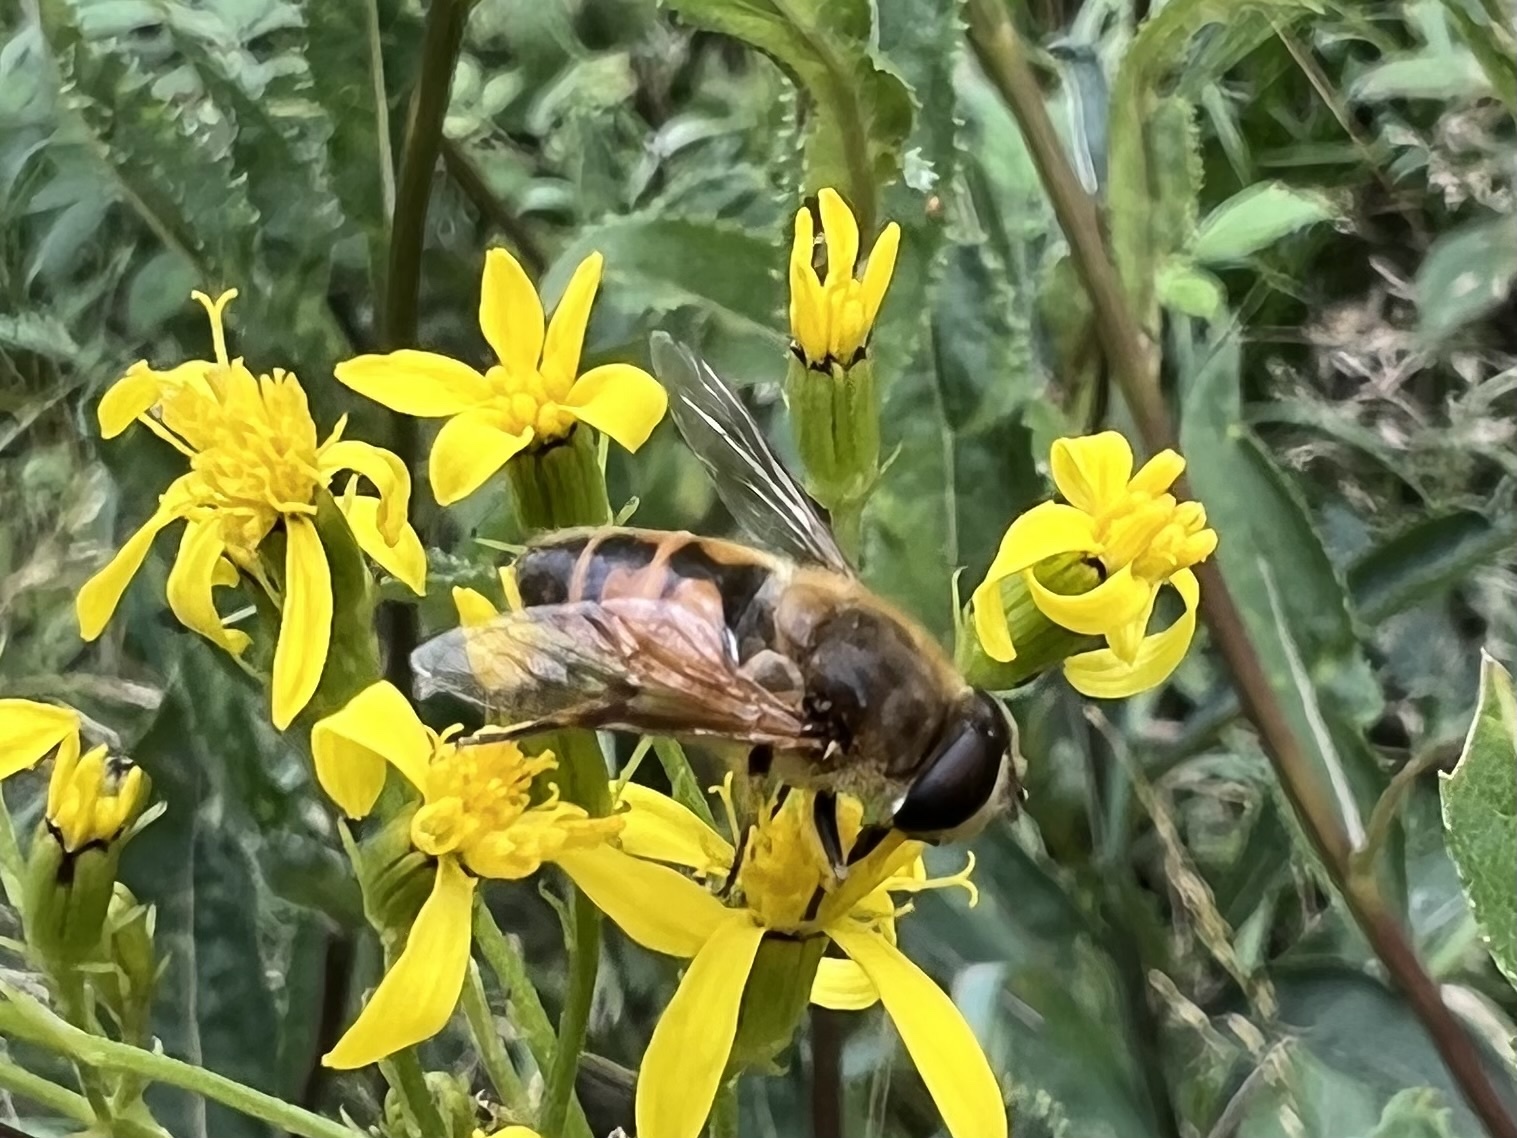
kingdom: Animalia
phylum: Arthropoda
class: Insecta
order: Diptera
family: Syrphidae
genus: Eristalis
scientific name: Eristalis tenax
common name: Drone fly
